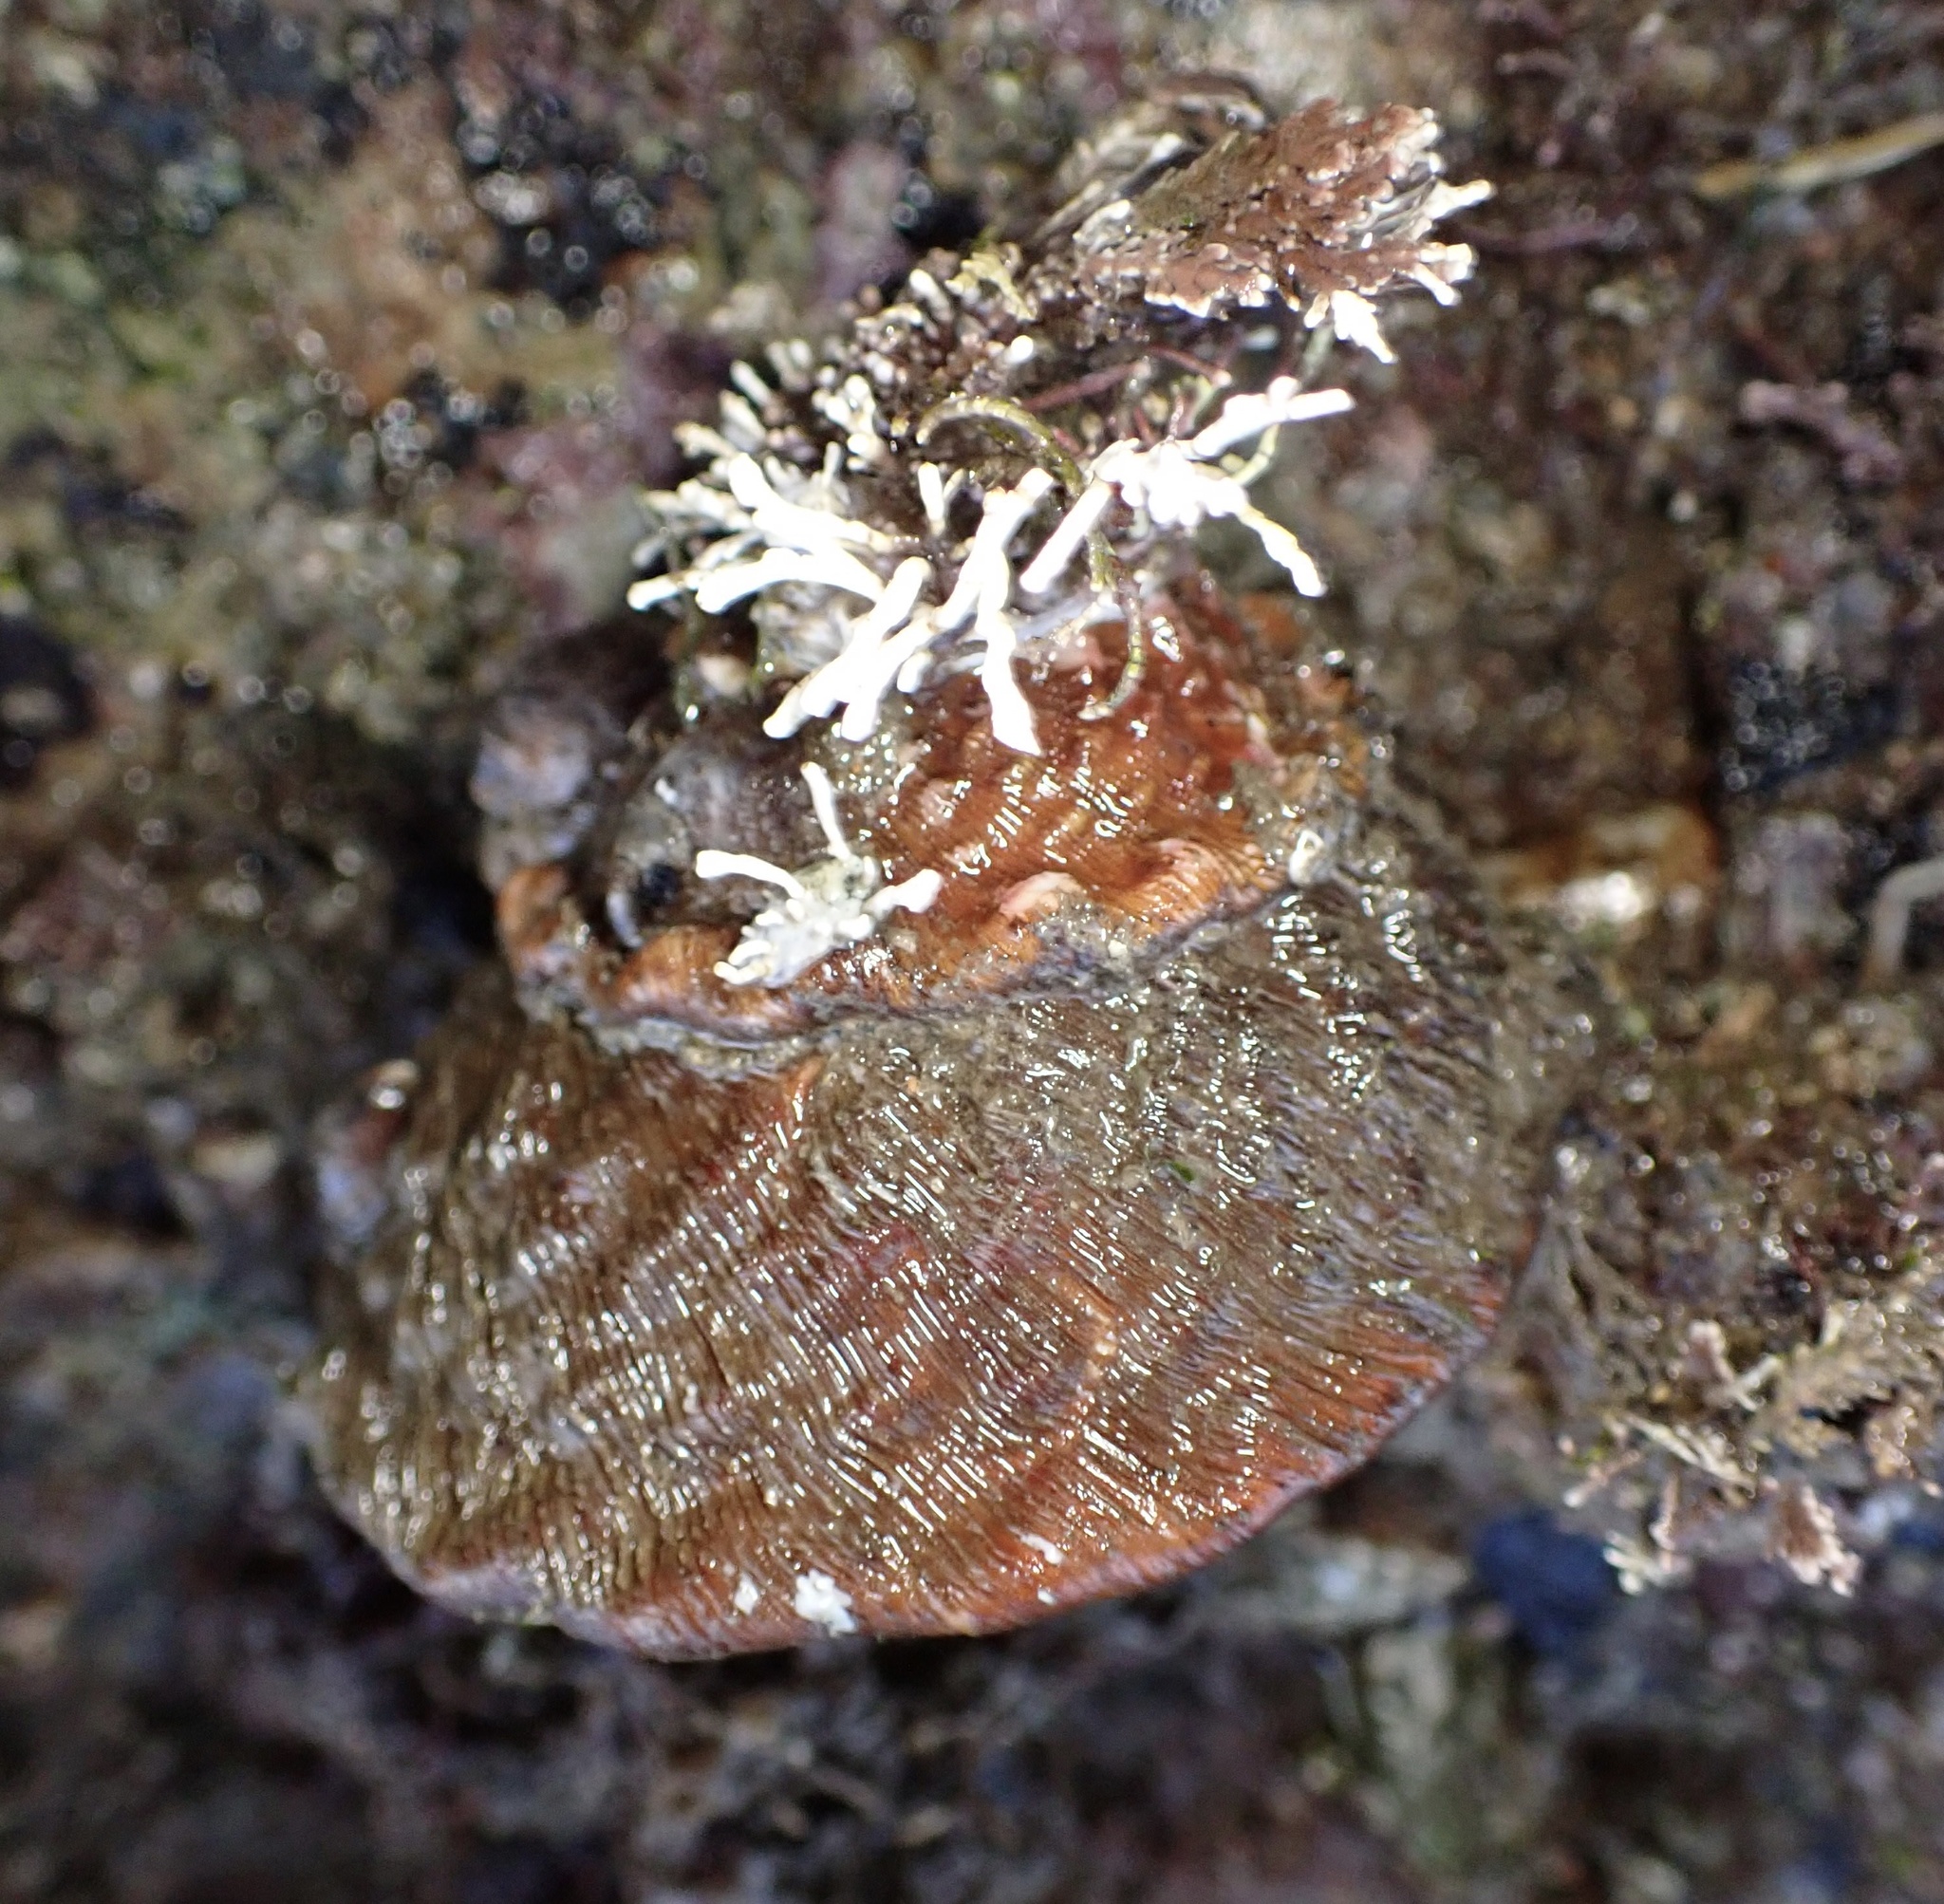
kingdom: Animalia
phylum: Mollusca
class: Gastropoda
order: Trochida
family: Turbinidae
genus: Megastraea
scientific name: Megastraea undosa
